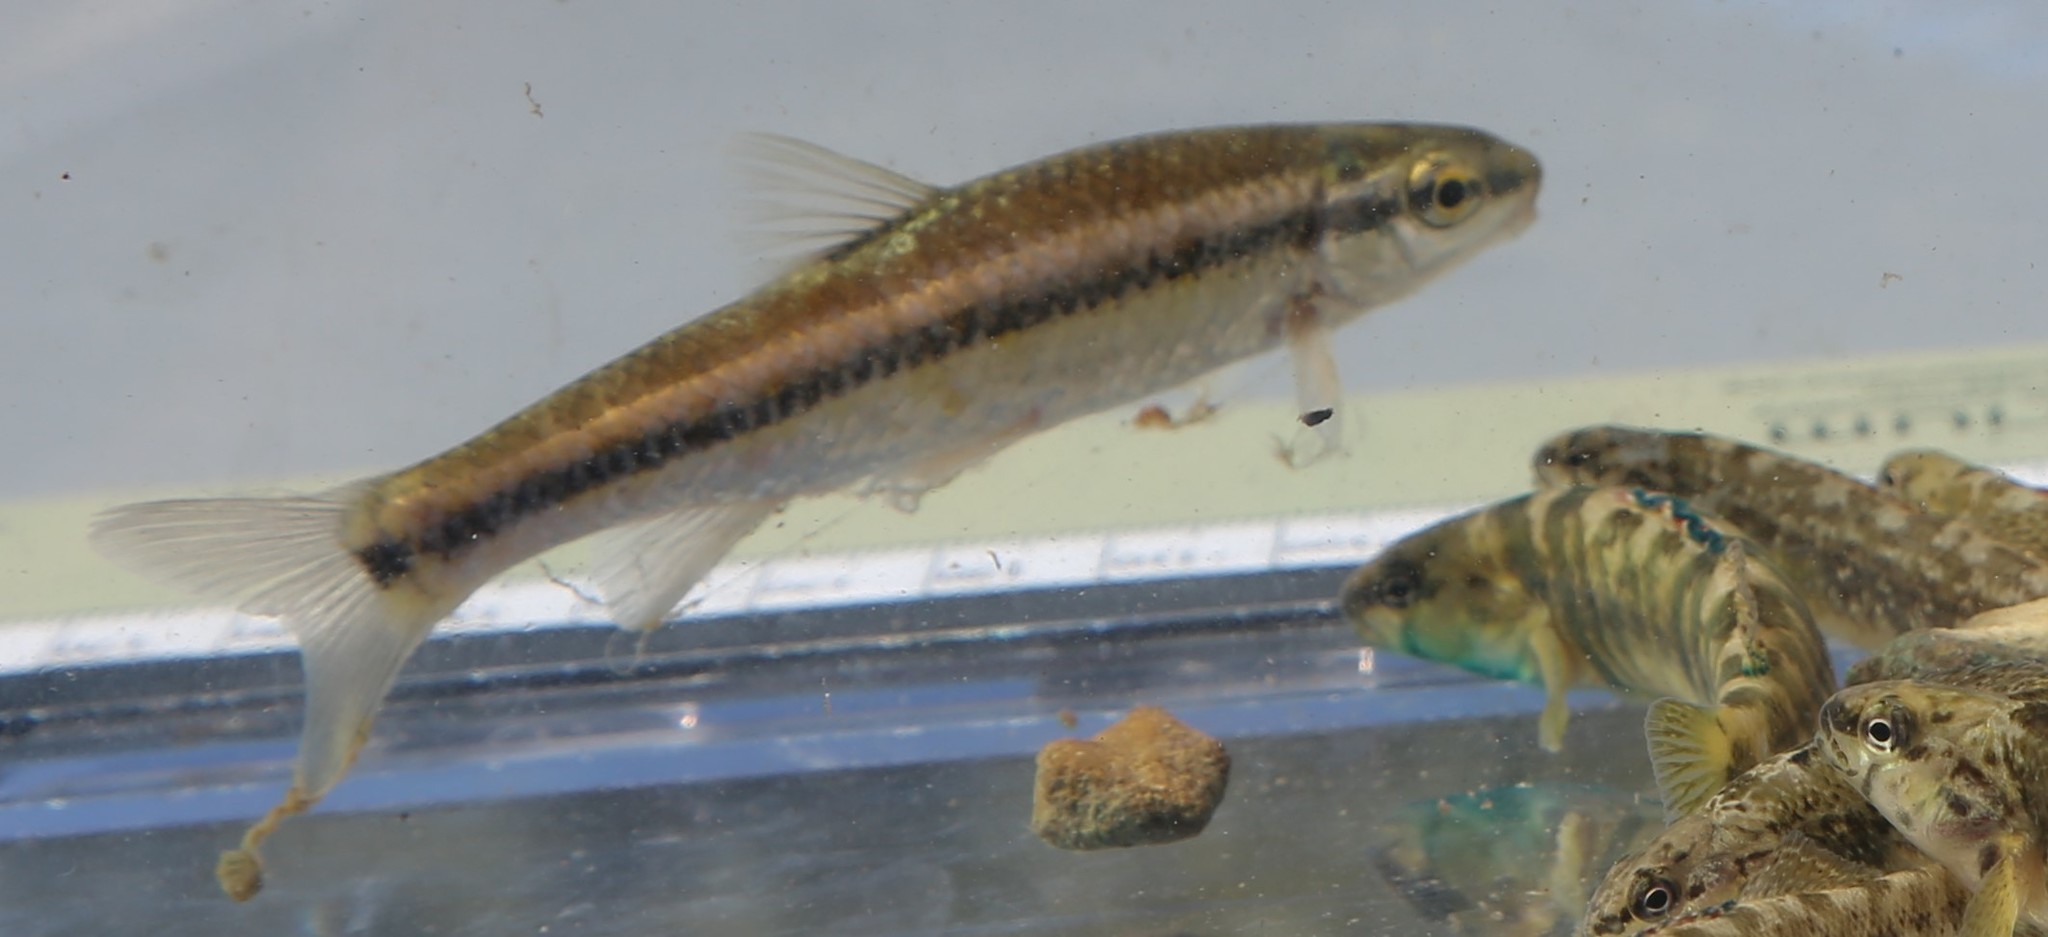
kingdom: Animalia
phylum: Chordata
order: Cypriniformes
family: Cyprinidae
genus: Dionda
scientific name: Dionda flavipinnis
